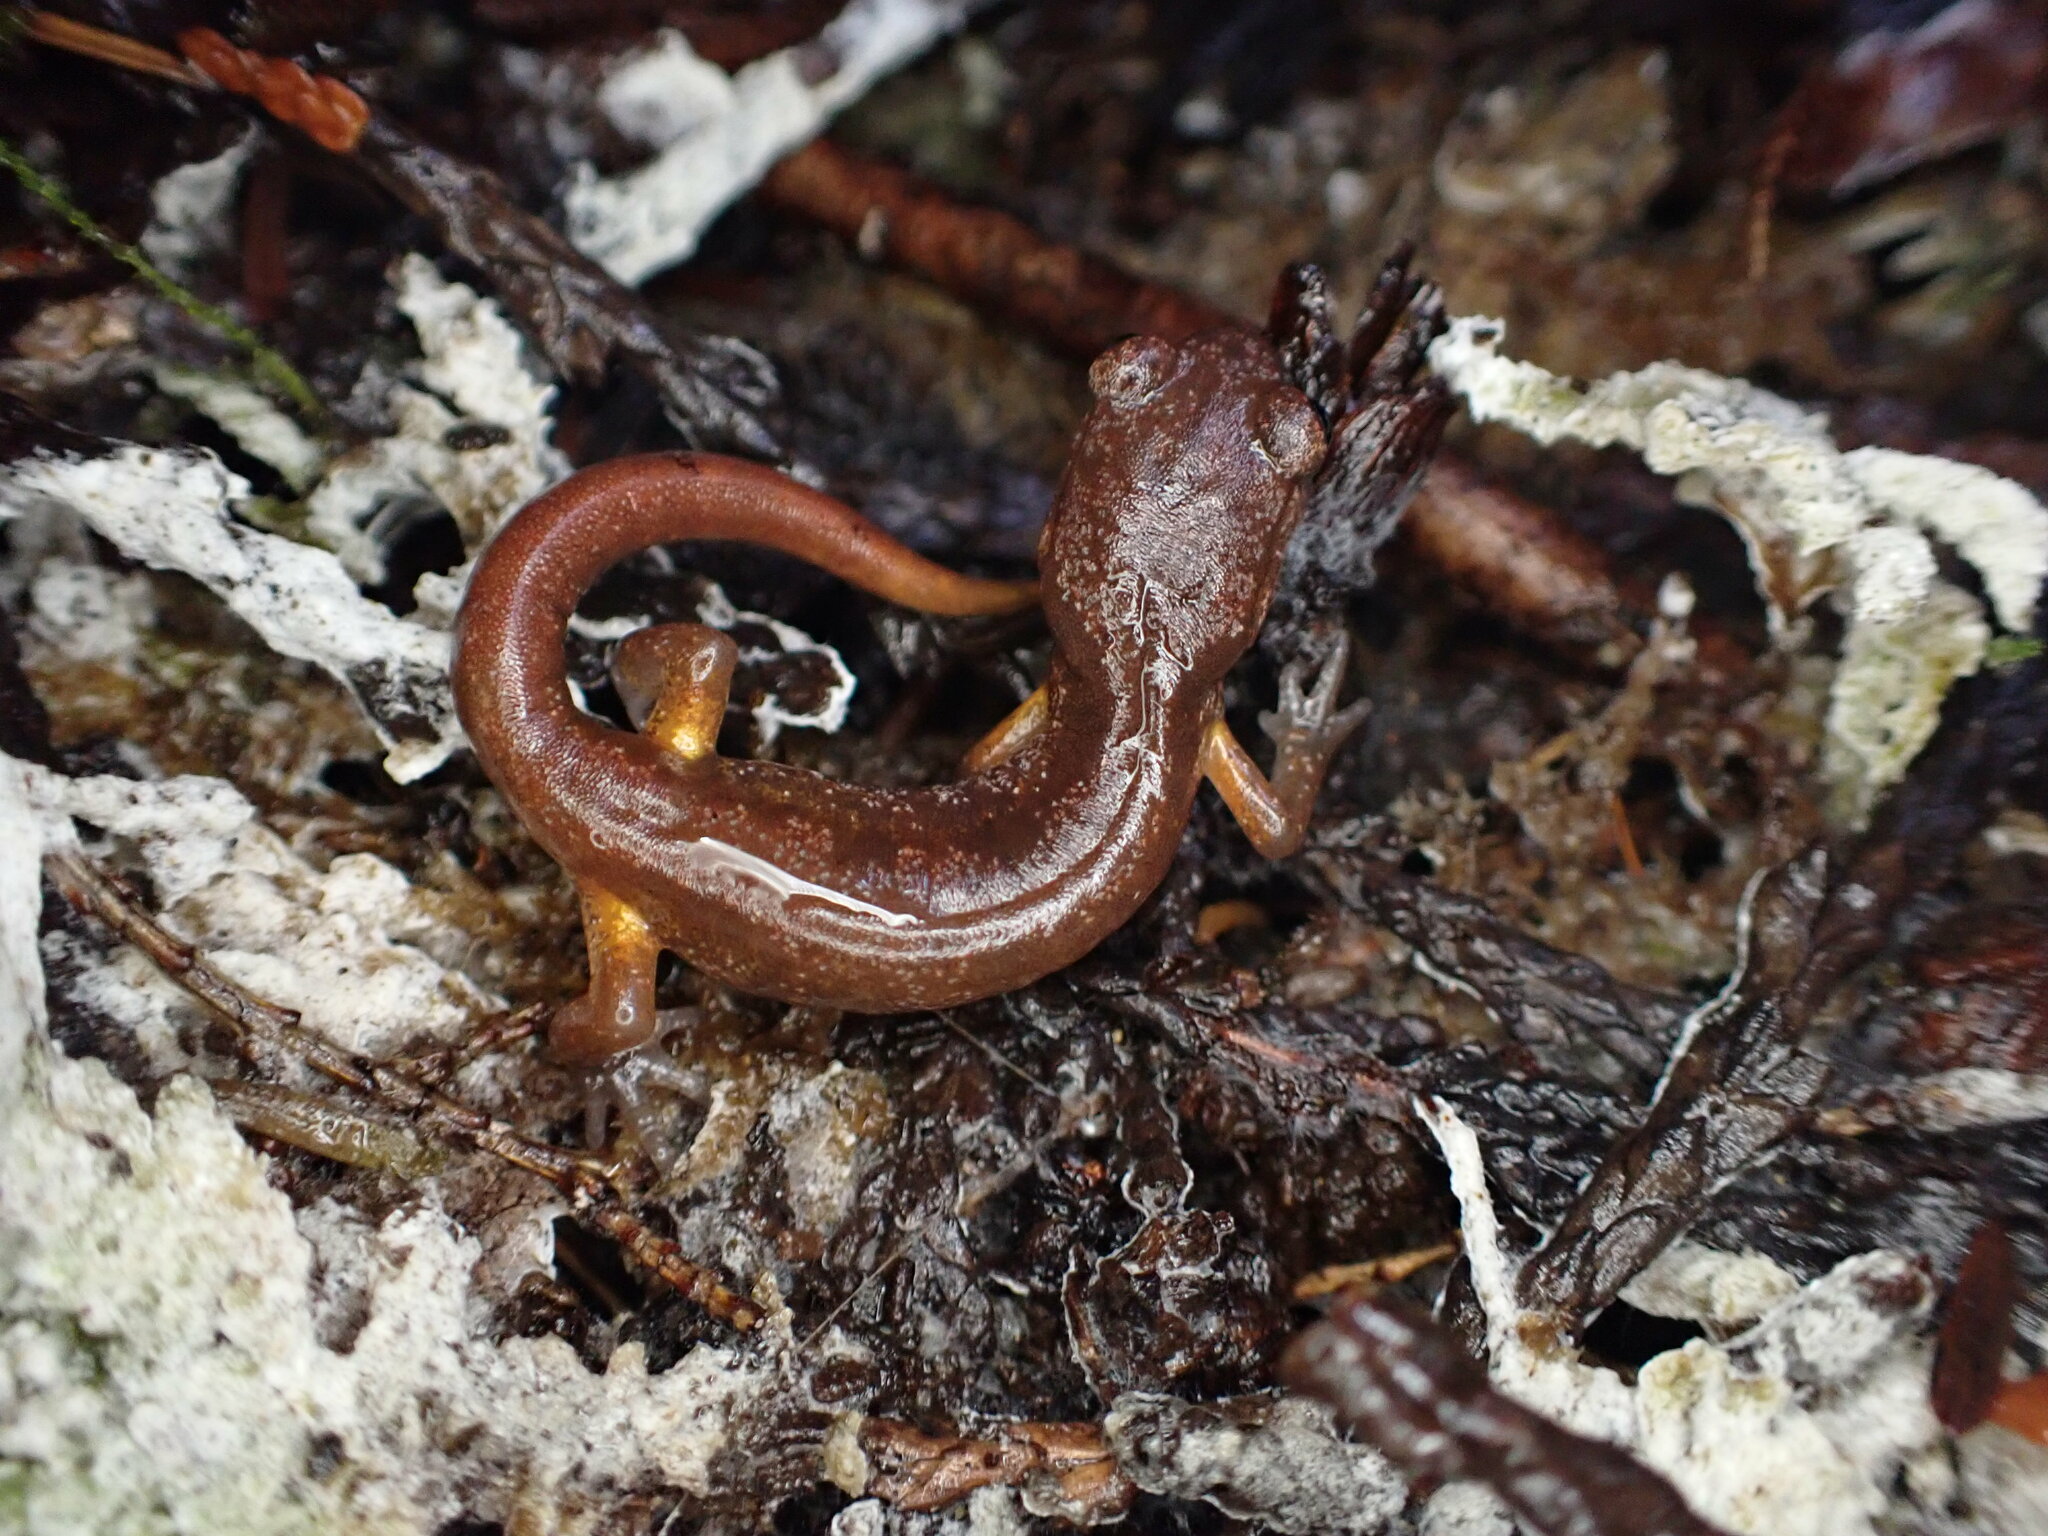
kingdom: Animalia
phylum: Chordata
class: Amphibia
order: Caudata
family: Plethodontidae
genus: Ensatina
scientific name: Ensatina eschscholtzii
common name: Ensatina
